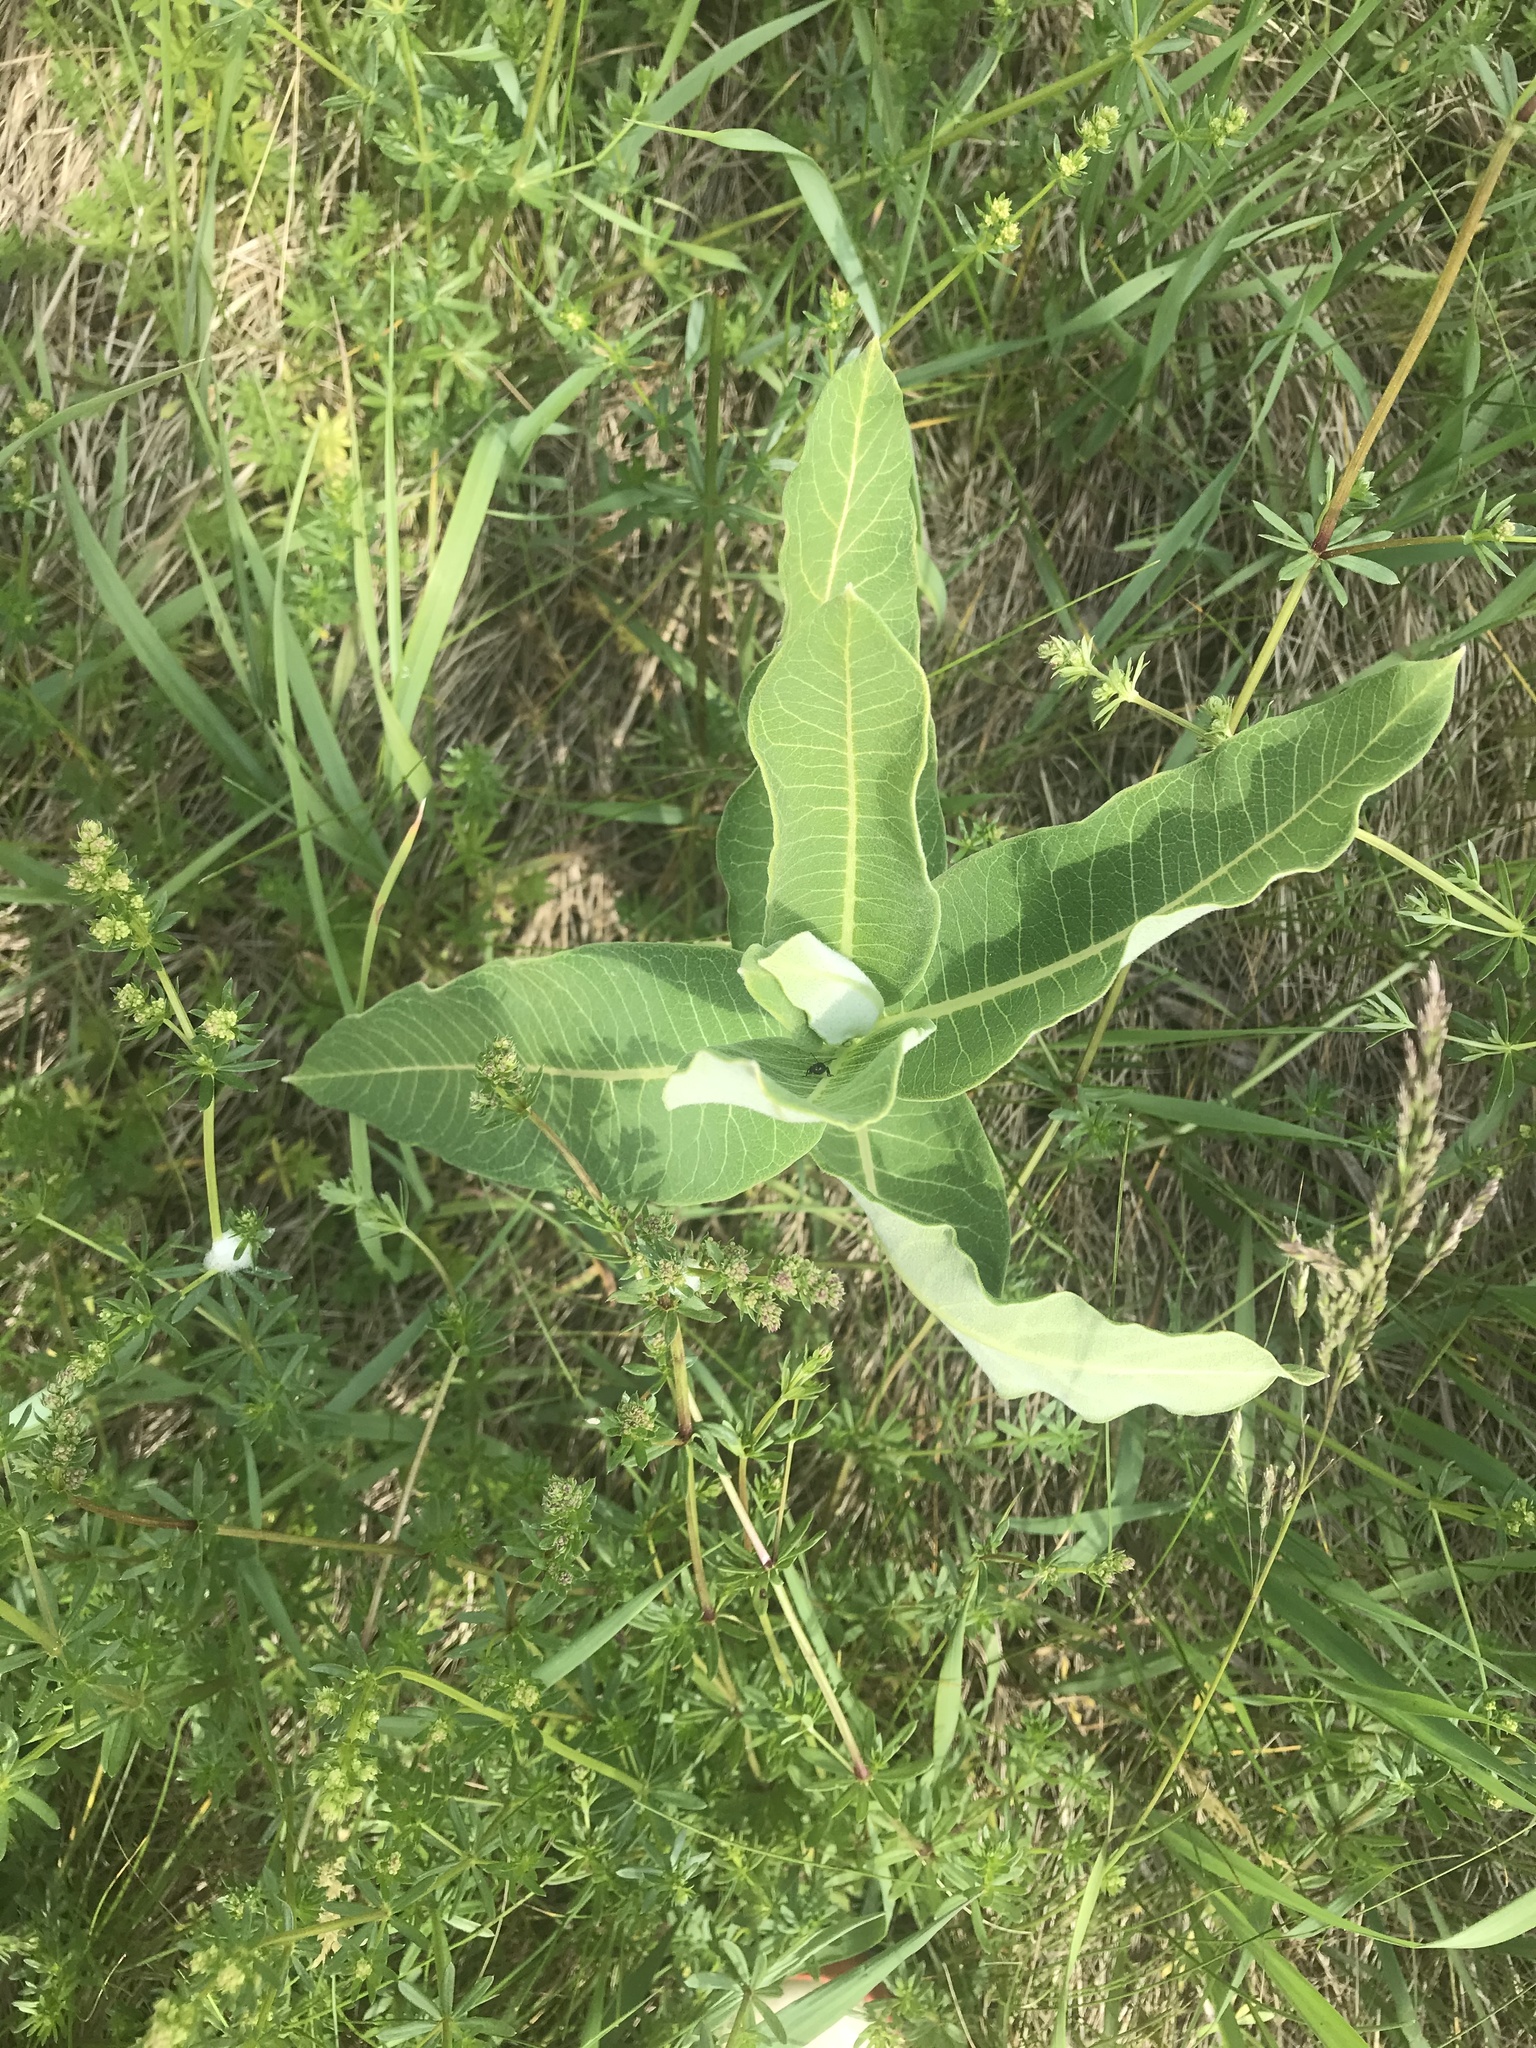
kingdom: Plantae
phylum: Tracheophyta
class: Magnoliopsida
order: Gentianales
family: Apocynaceae
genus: Asclepias
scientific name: Asclepias syriaca
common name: Common milkweed
